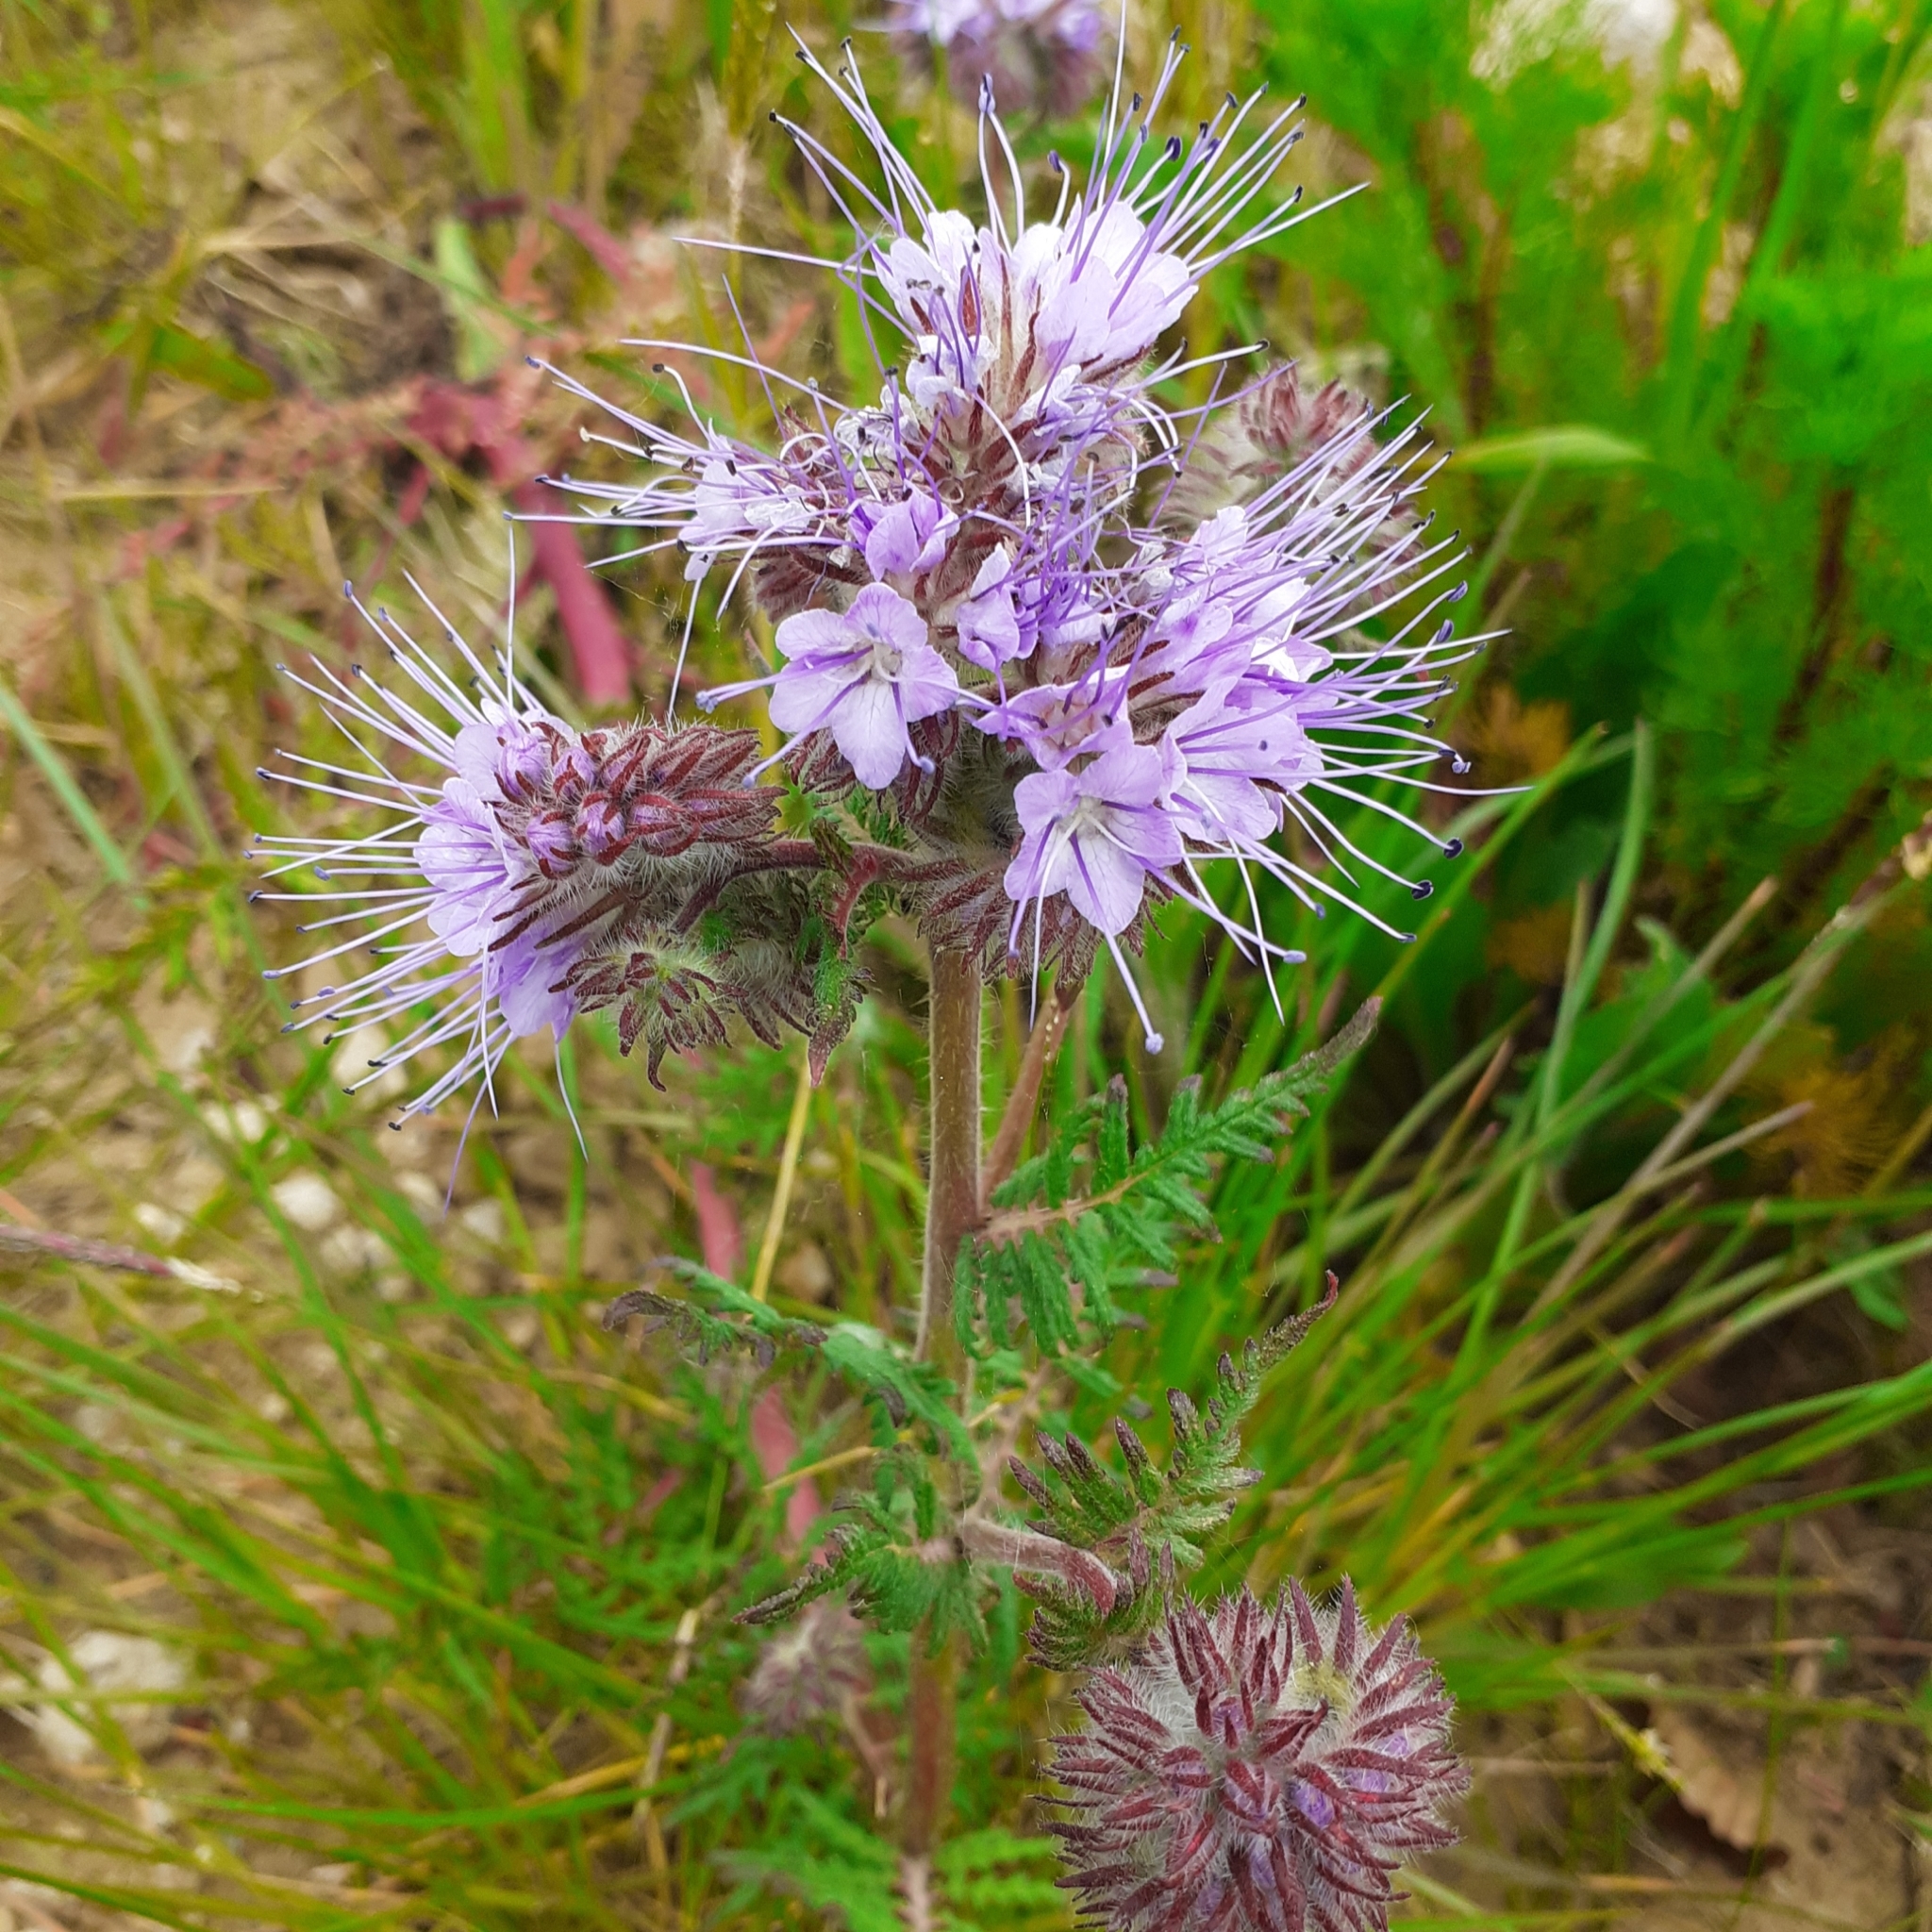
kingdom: Plantae
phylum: Tracheophyta
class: Magnoliopsida
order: Boraginales
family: Hydrophyllaceae
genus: Phacelia
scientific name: Phacelia tanacetifolia
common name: Phacelia
